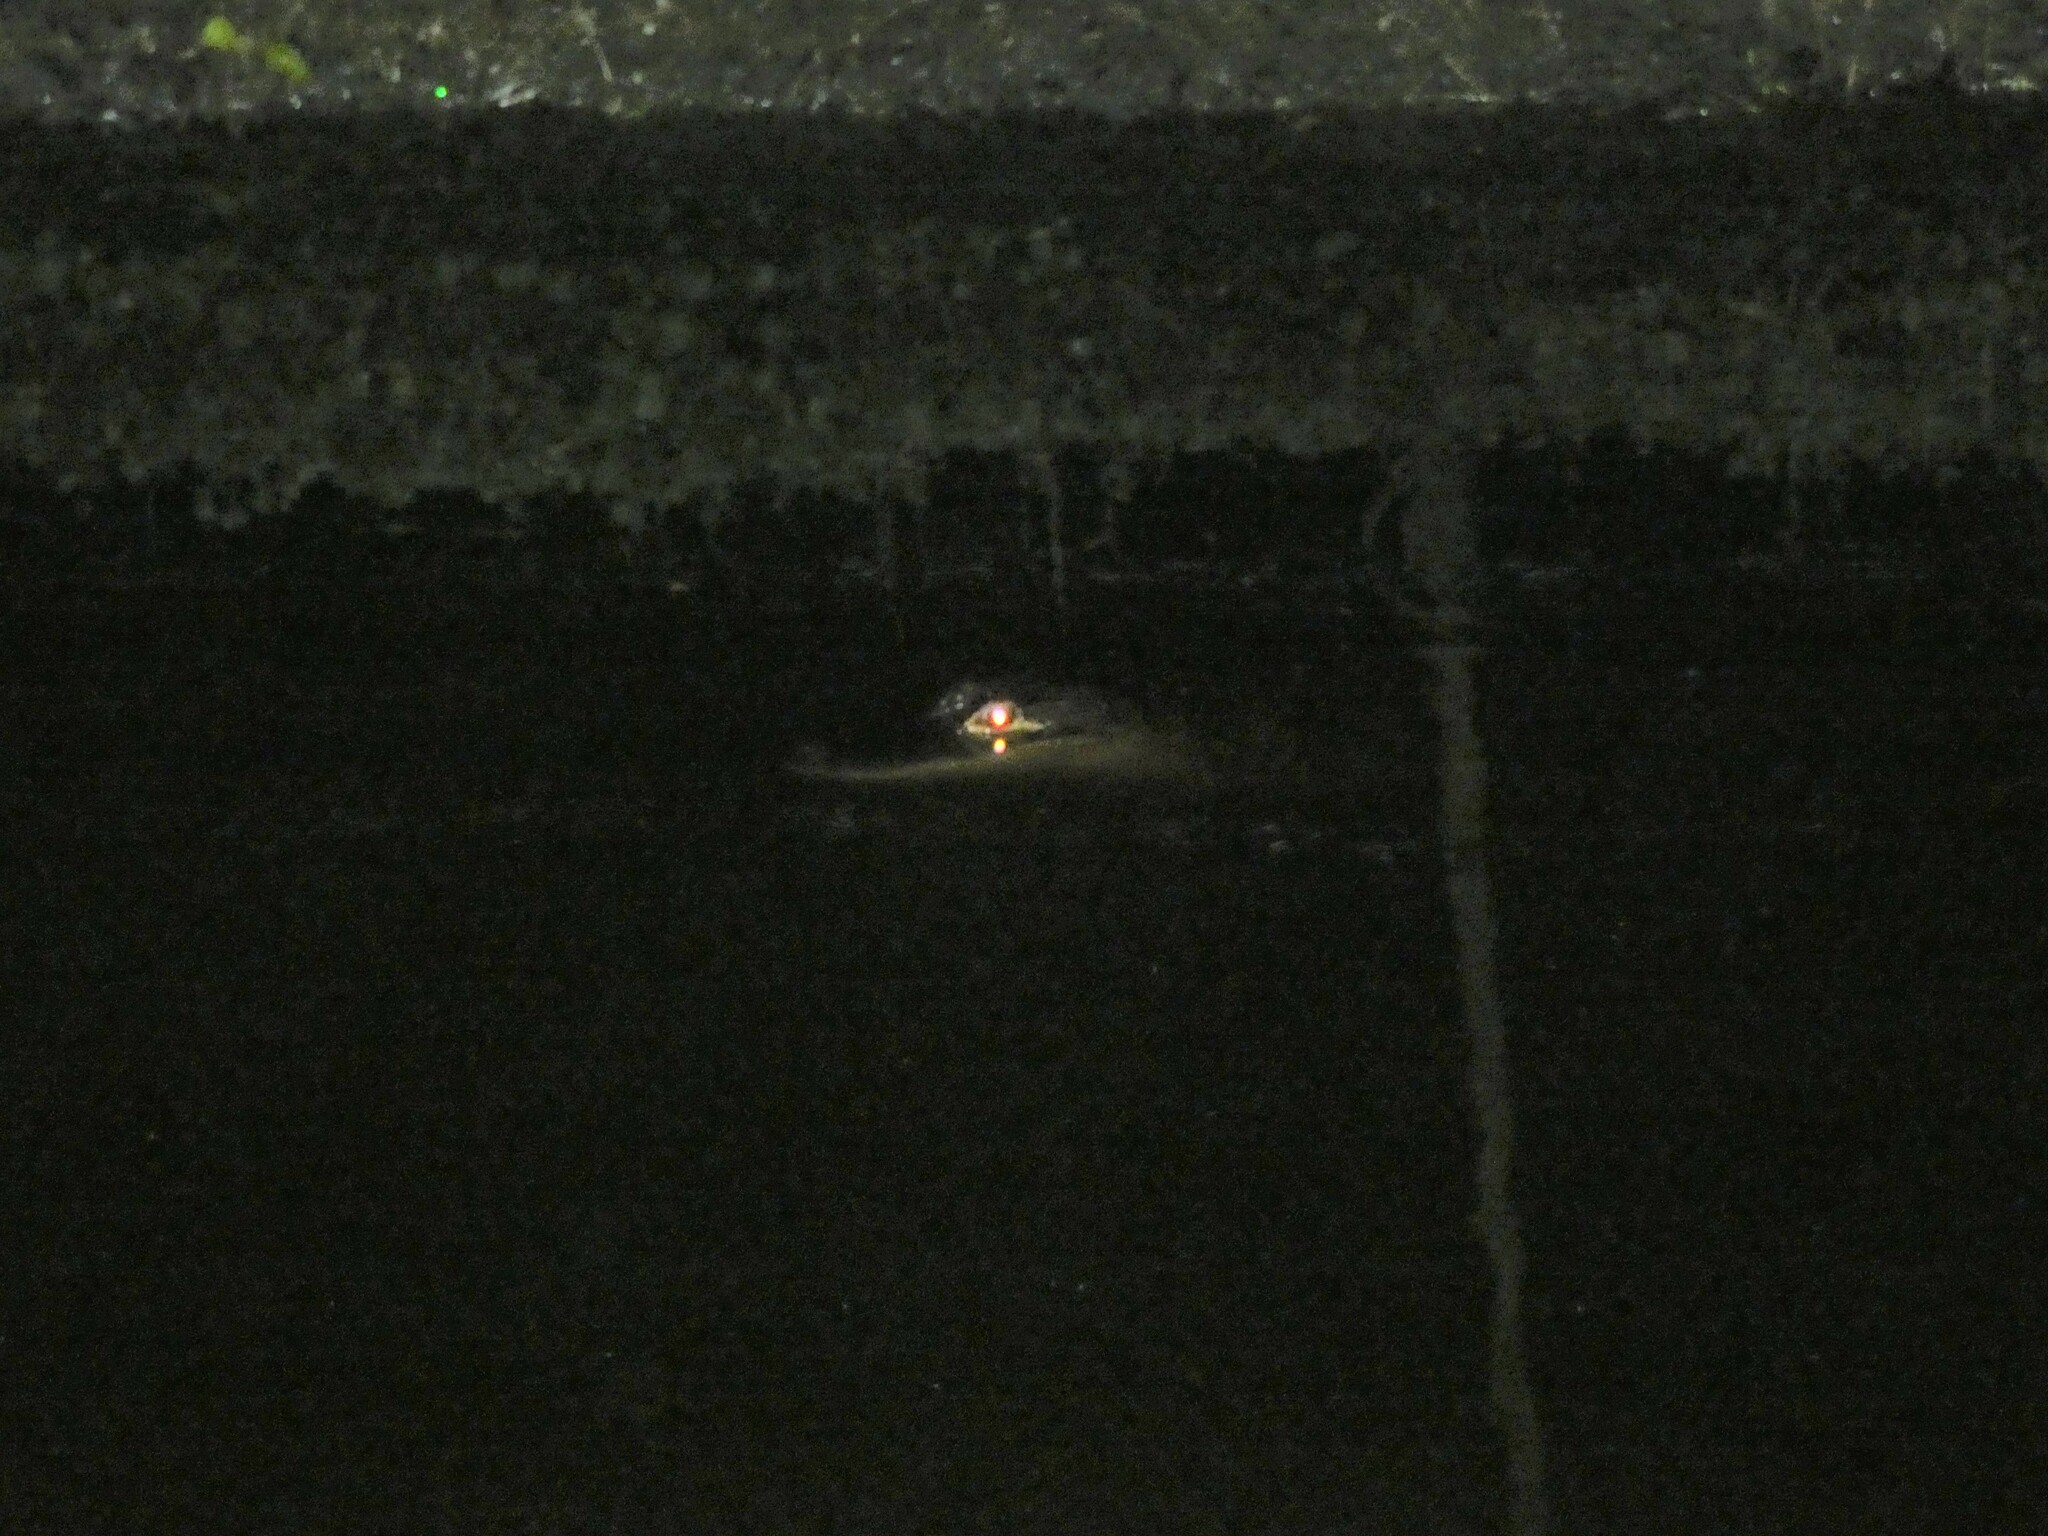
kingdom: Animalia
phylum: Chordata
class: Crocodylia
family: Alligatoridae
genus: Alligator
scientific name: Alligator mississippiensis
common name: American alligator
